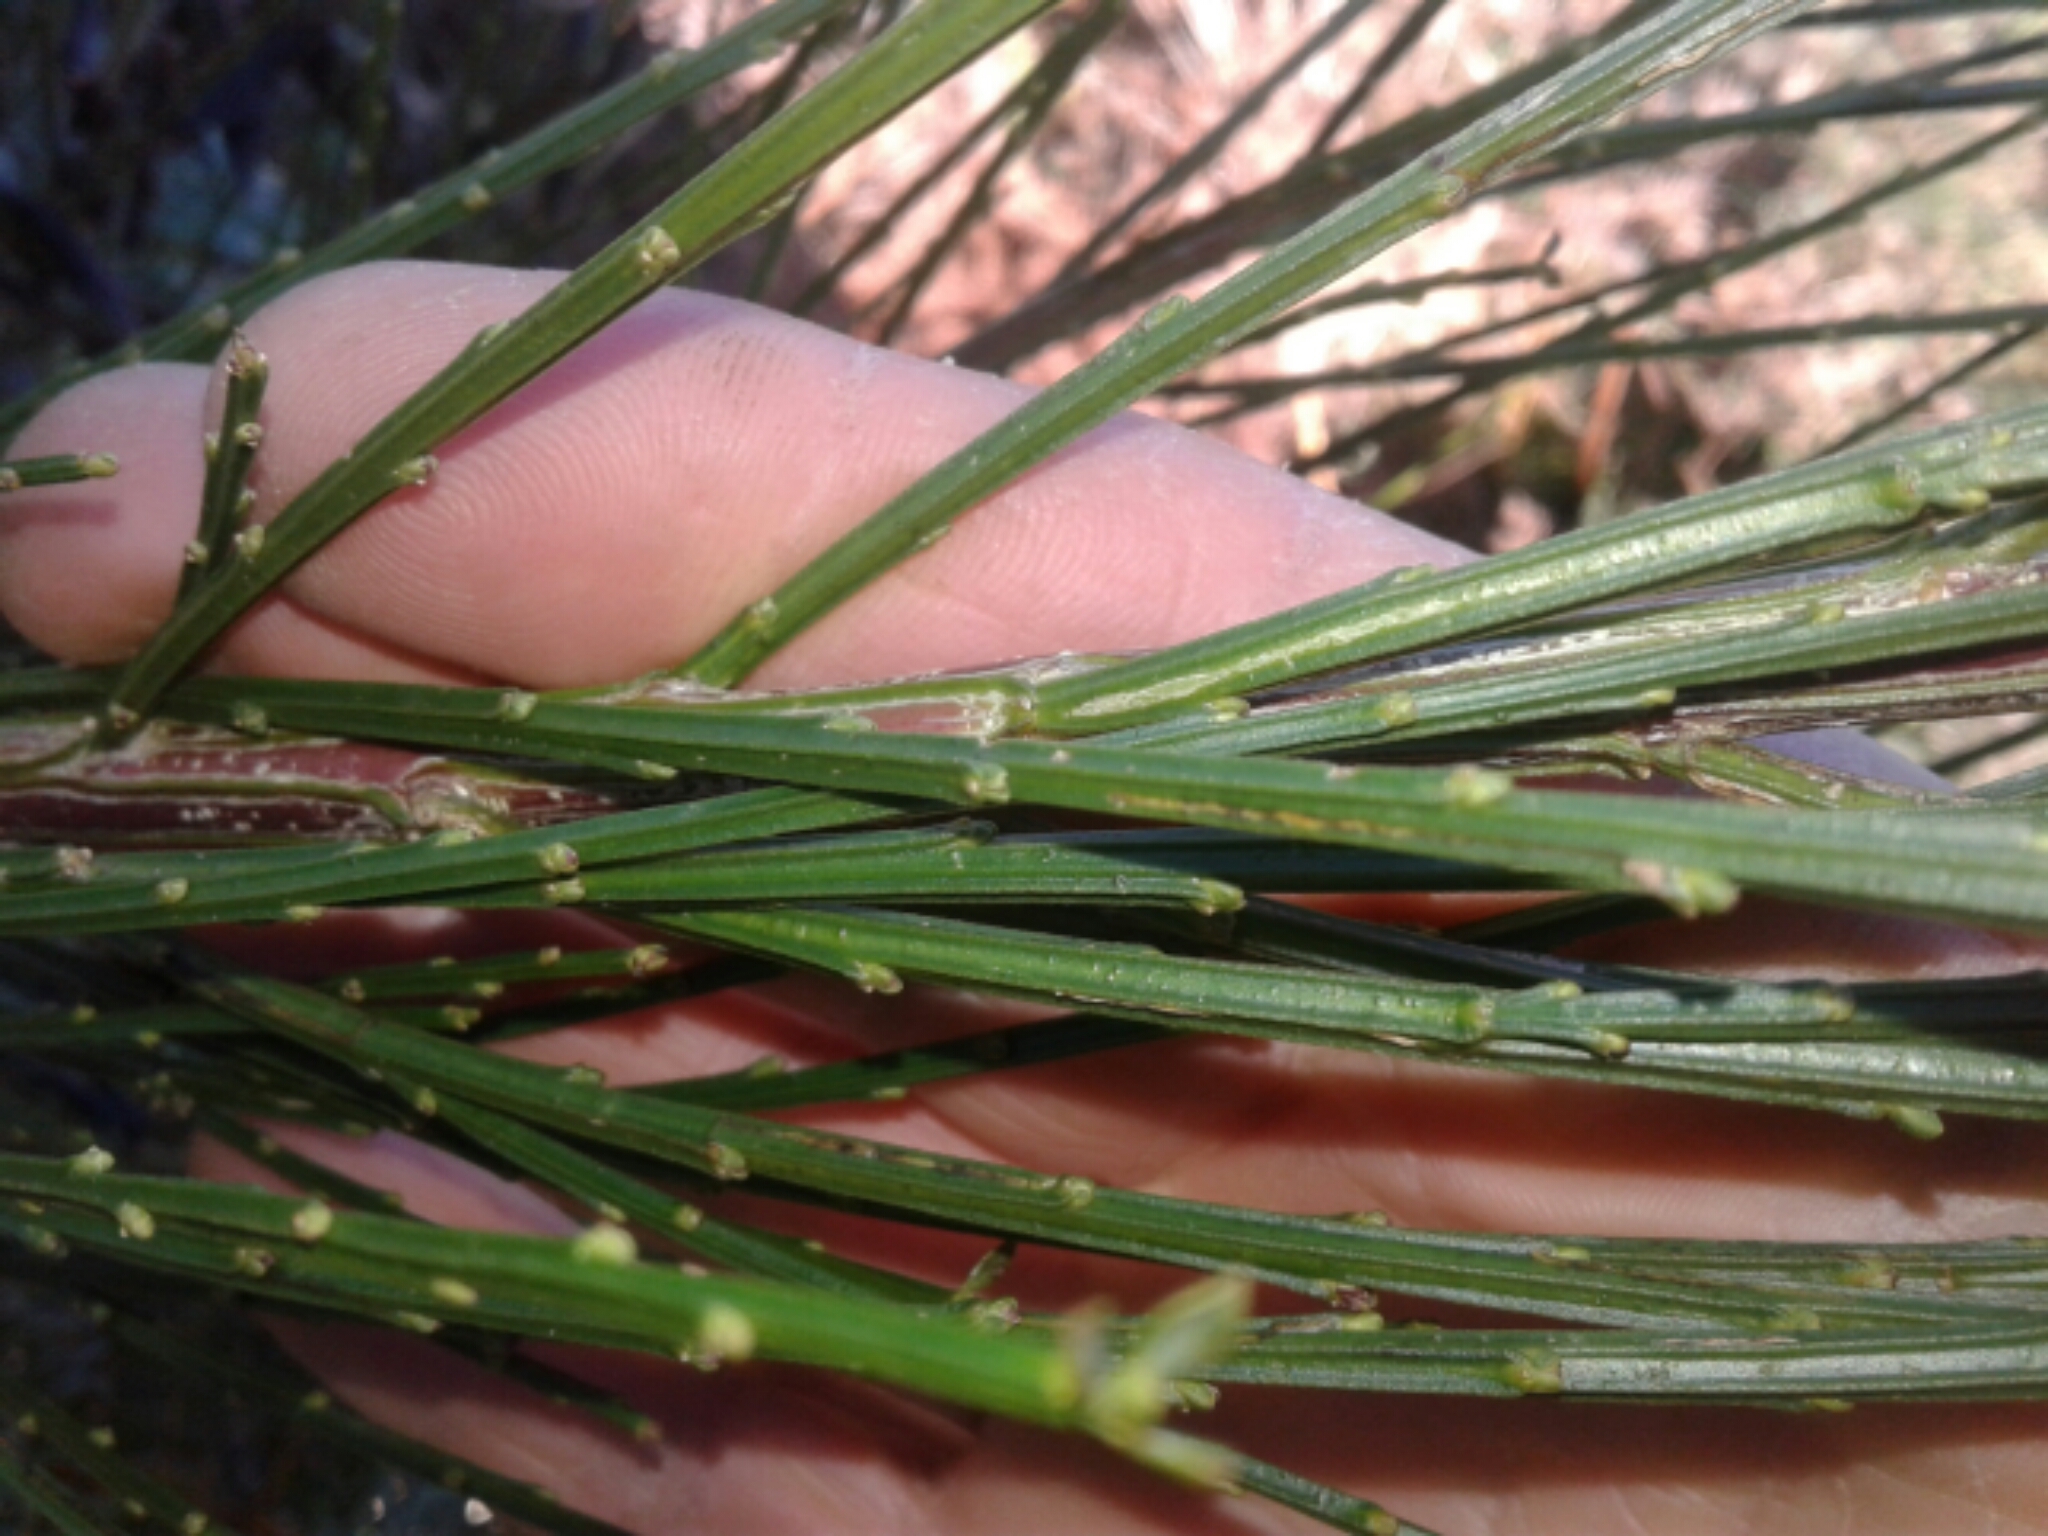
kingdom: Plantae
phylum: Tracheophyta
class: Magnoliopsida
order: Fabales
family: Fabaceae
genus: Cytisus
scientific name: Cytisus scoparius
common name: Scotch broom
